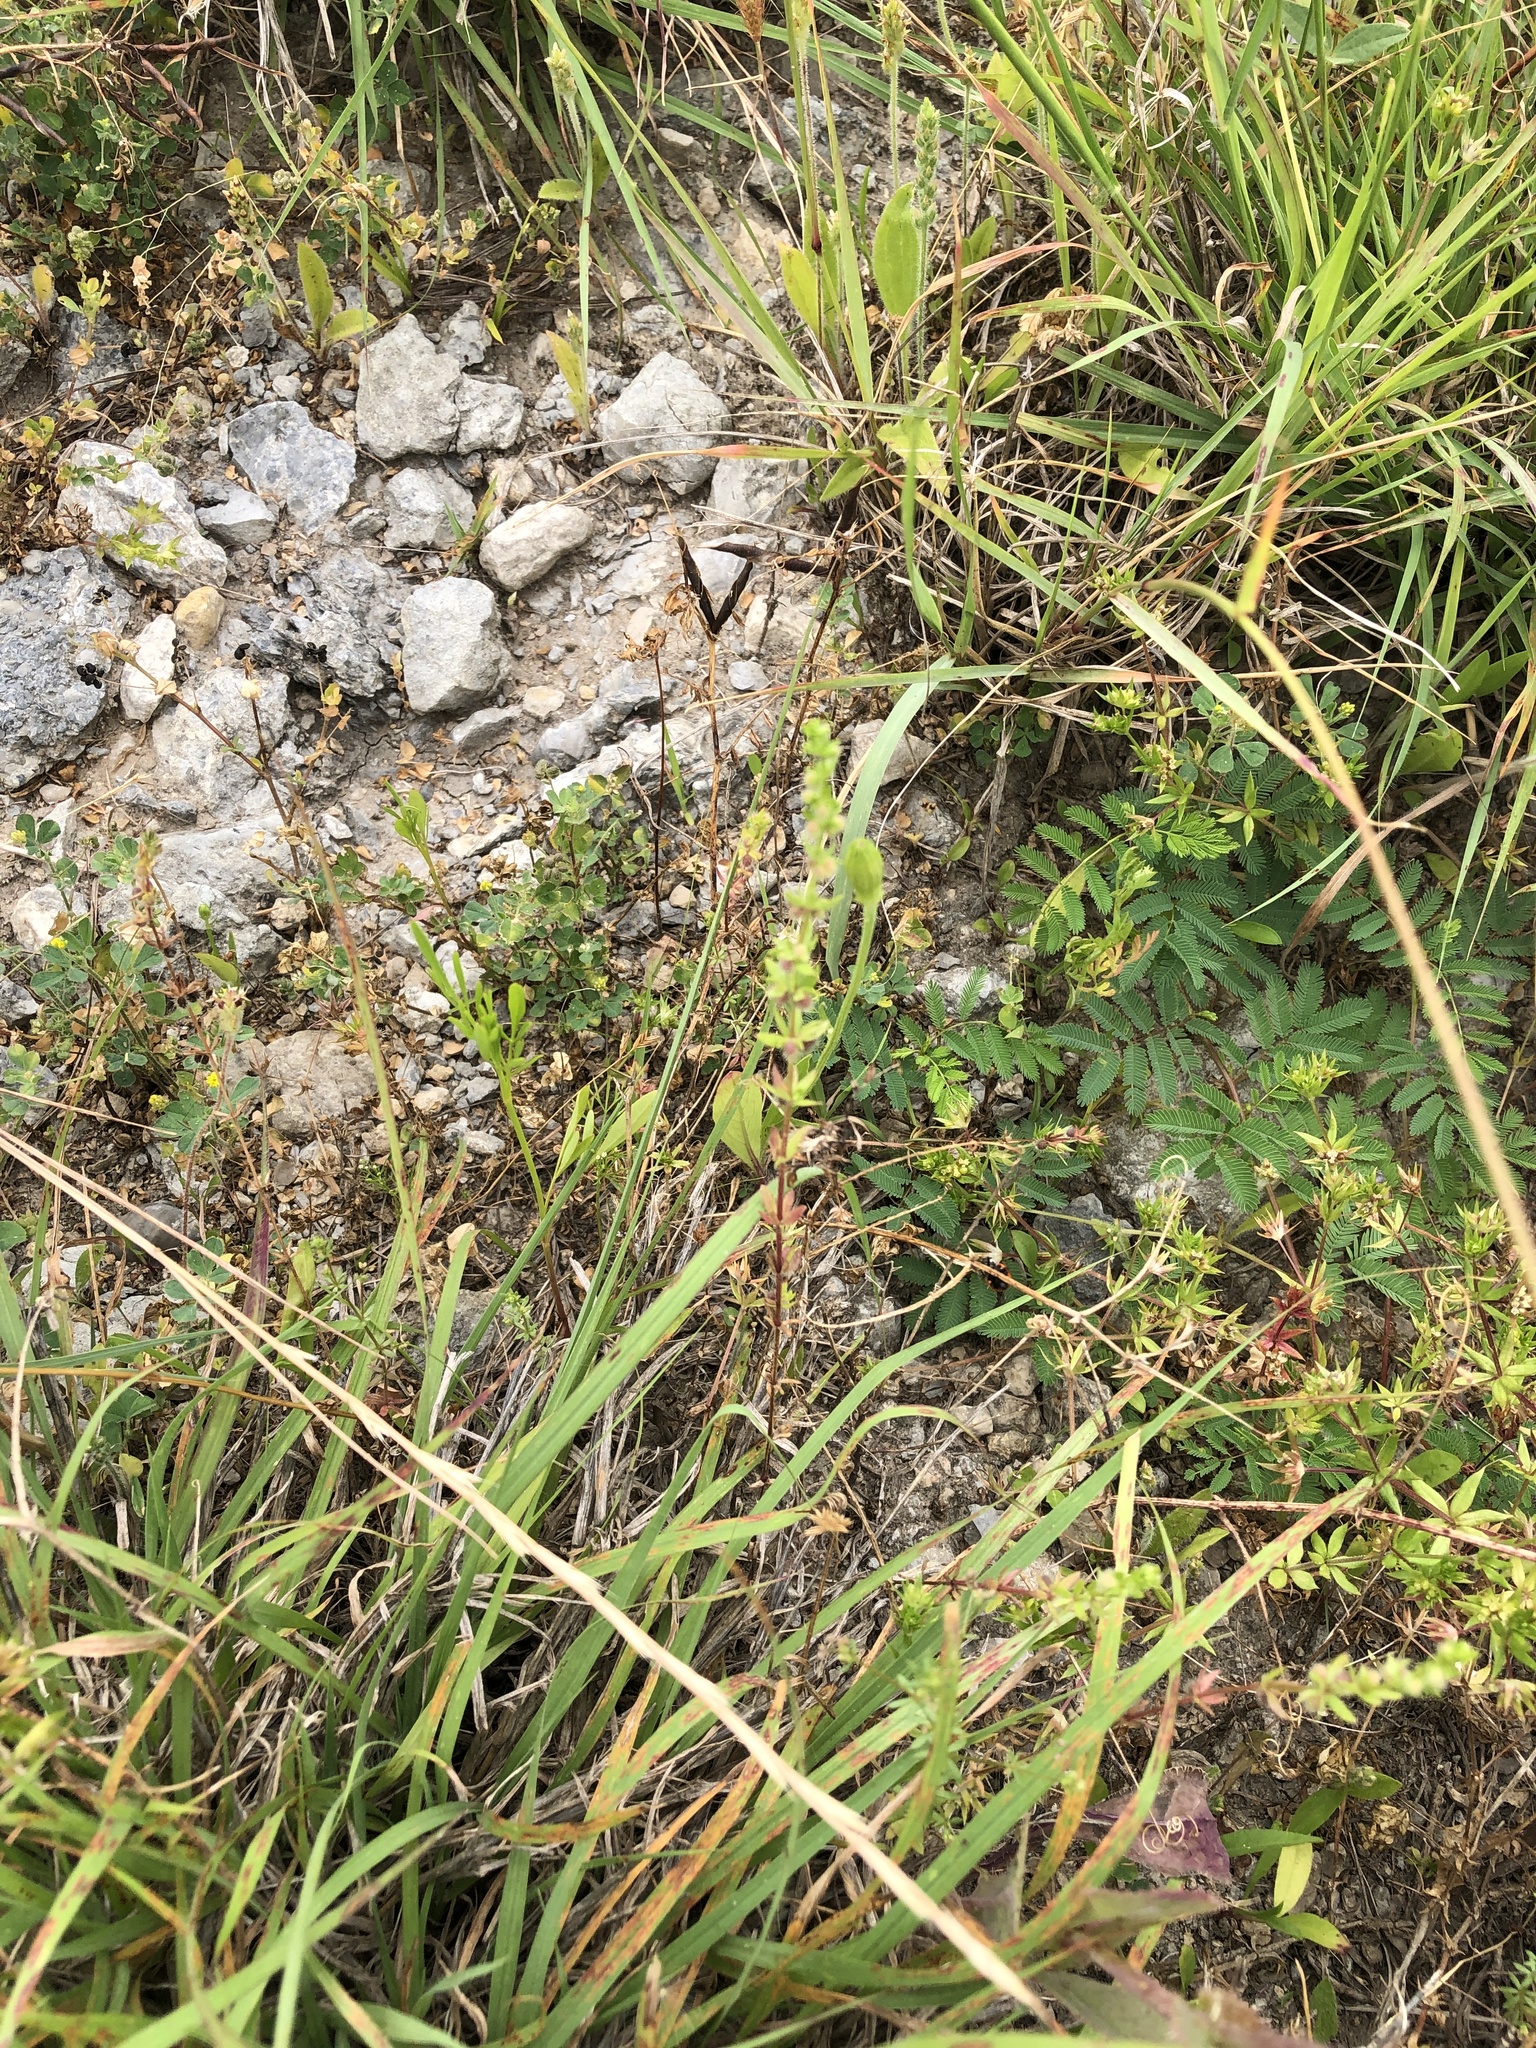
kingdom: Plantae
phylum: Tracheophyta
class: Magnoliopsida
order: Gentianales
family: Rubiaceae
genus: Galium
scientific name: Galium virgatum
